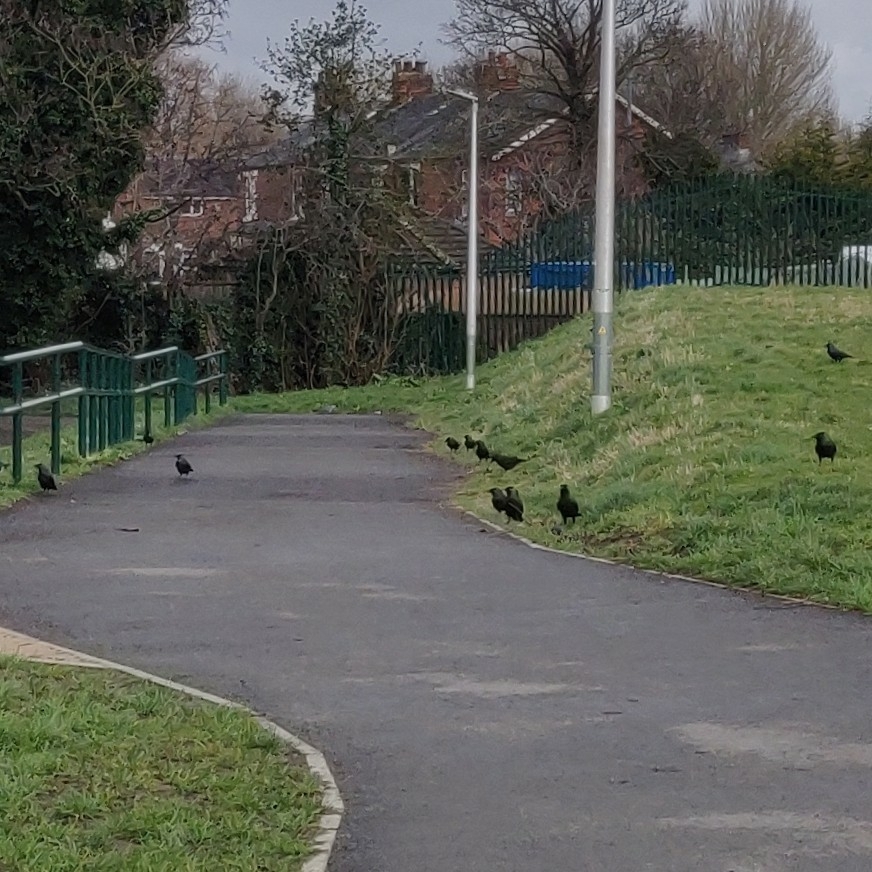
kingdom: Animalia
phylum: Chordata
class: Aves
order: Passeriformes
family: Corvidae
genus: Coloeus
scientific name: Coloeus monedula
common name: Western jackdaw
